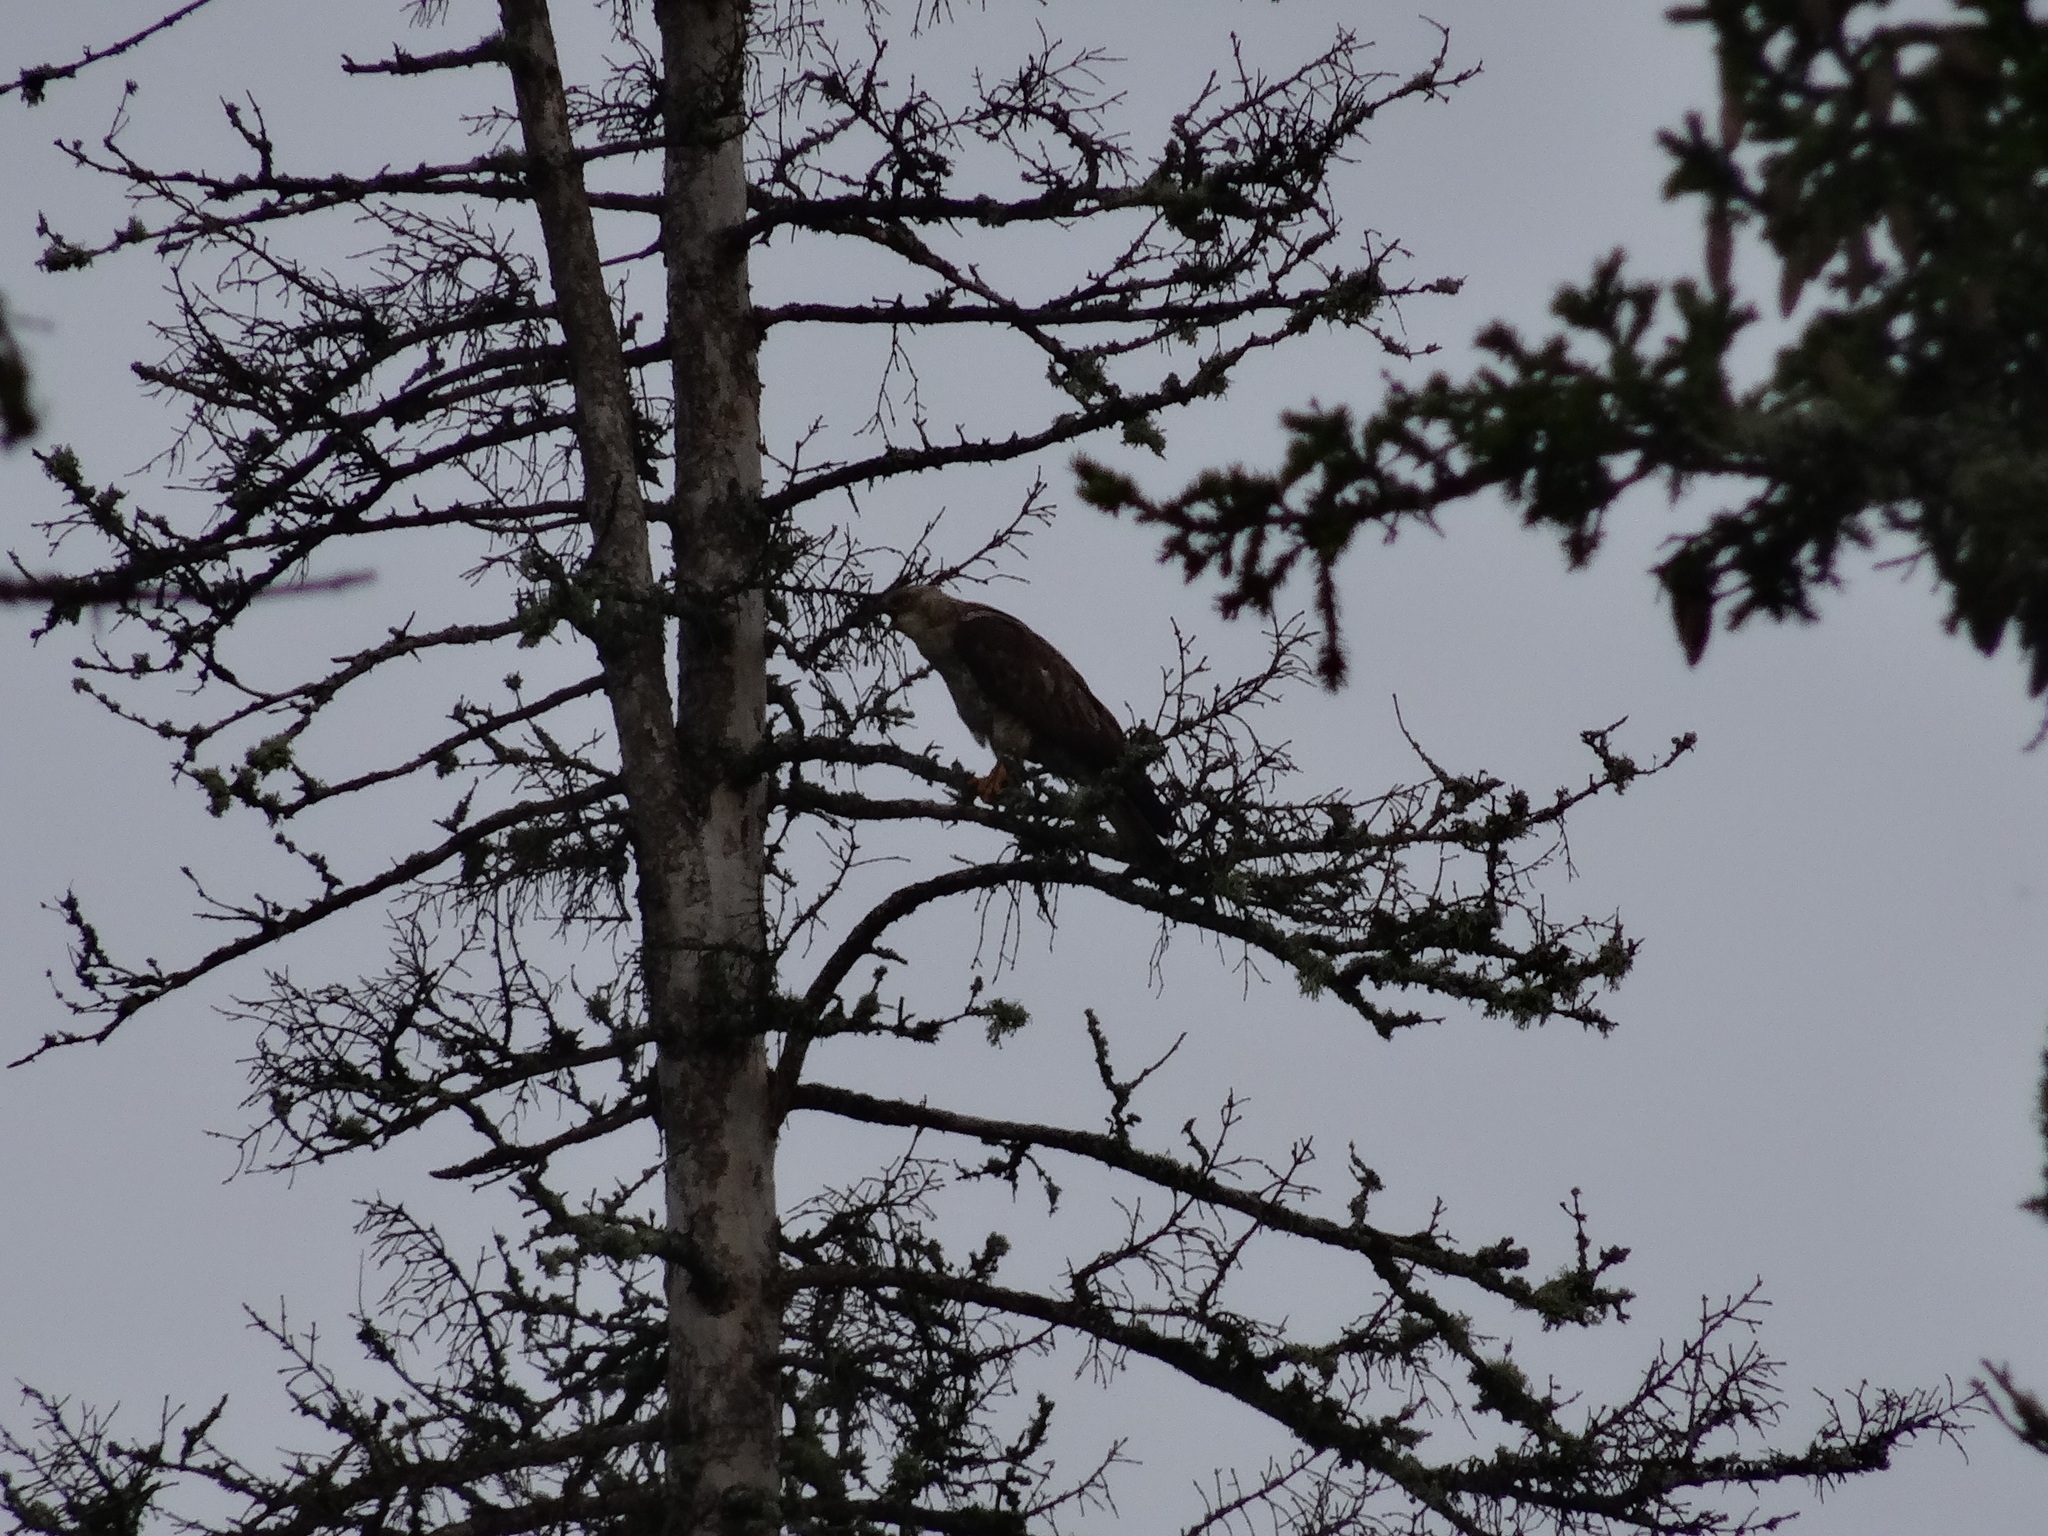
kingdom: Animalia
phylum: Chordata
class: Aves
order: Accipitriformes
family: Accipitridae
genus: Pernis
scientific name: Pernis apivorus
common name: European honey buzzard
